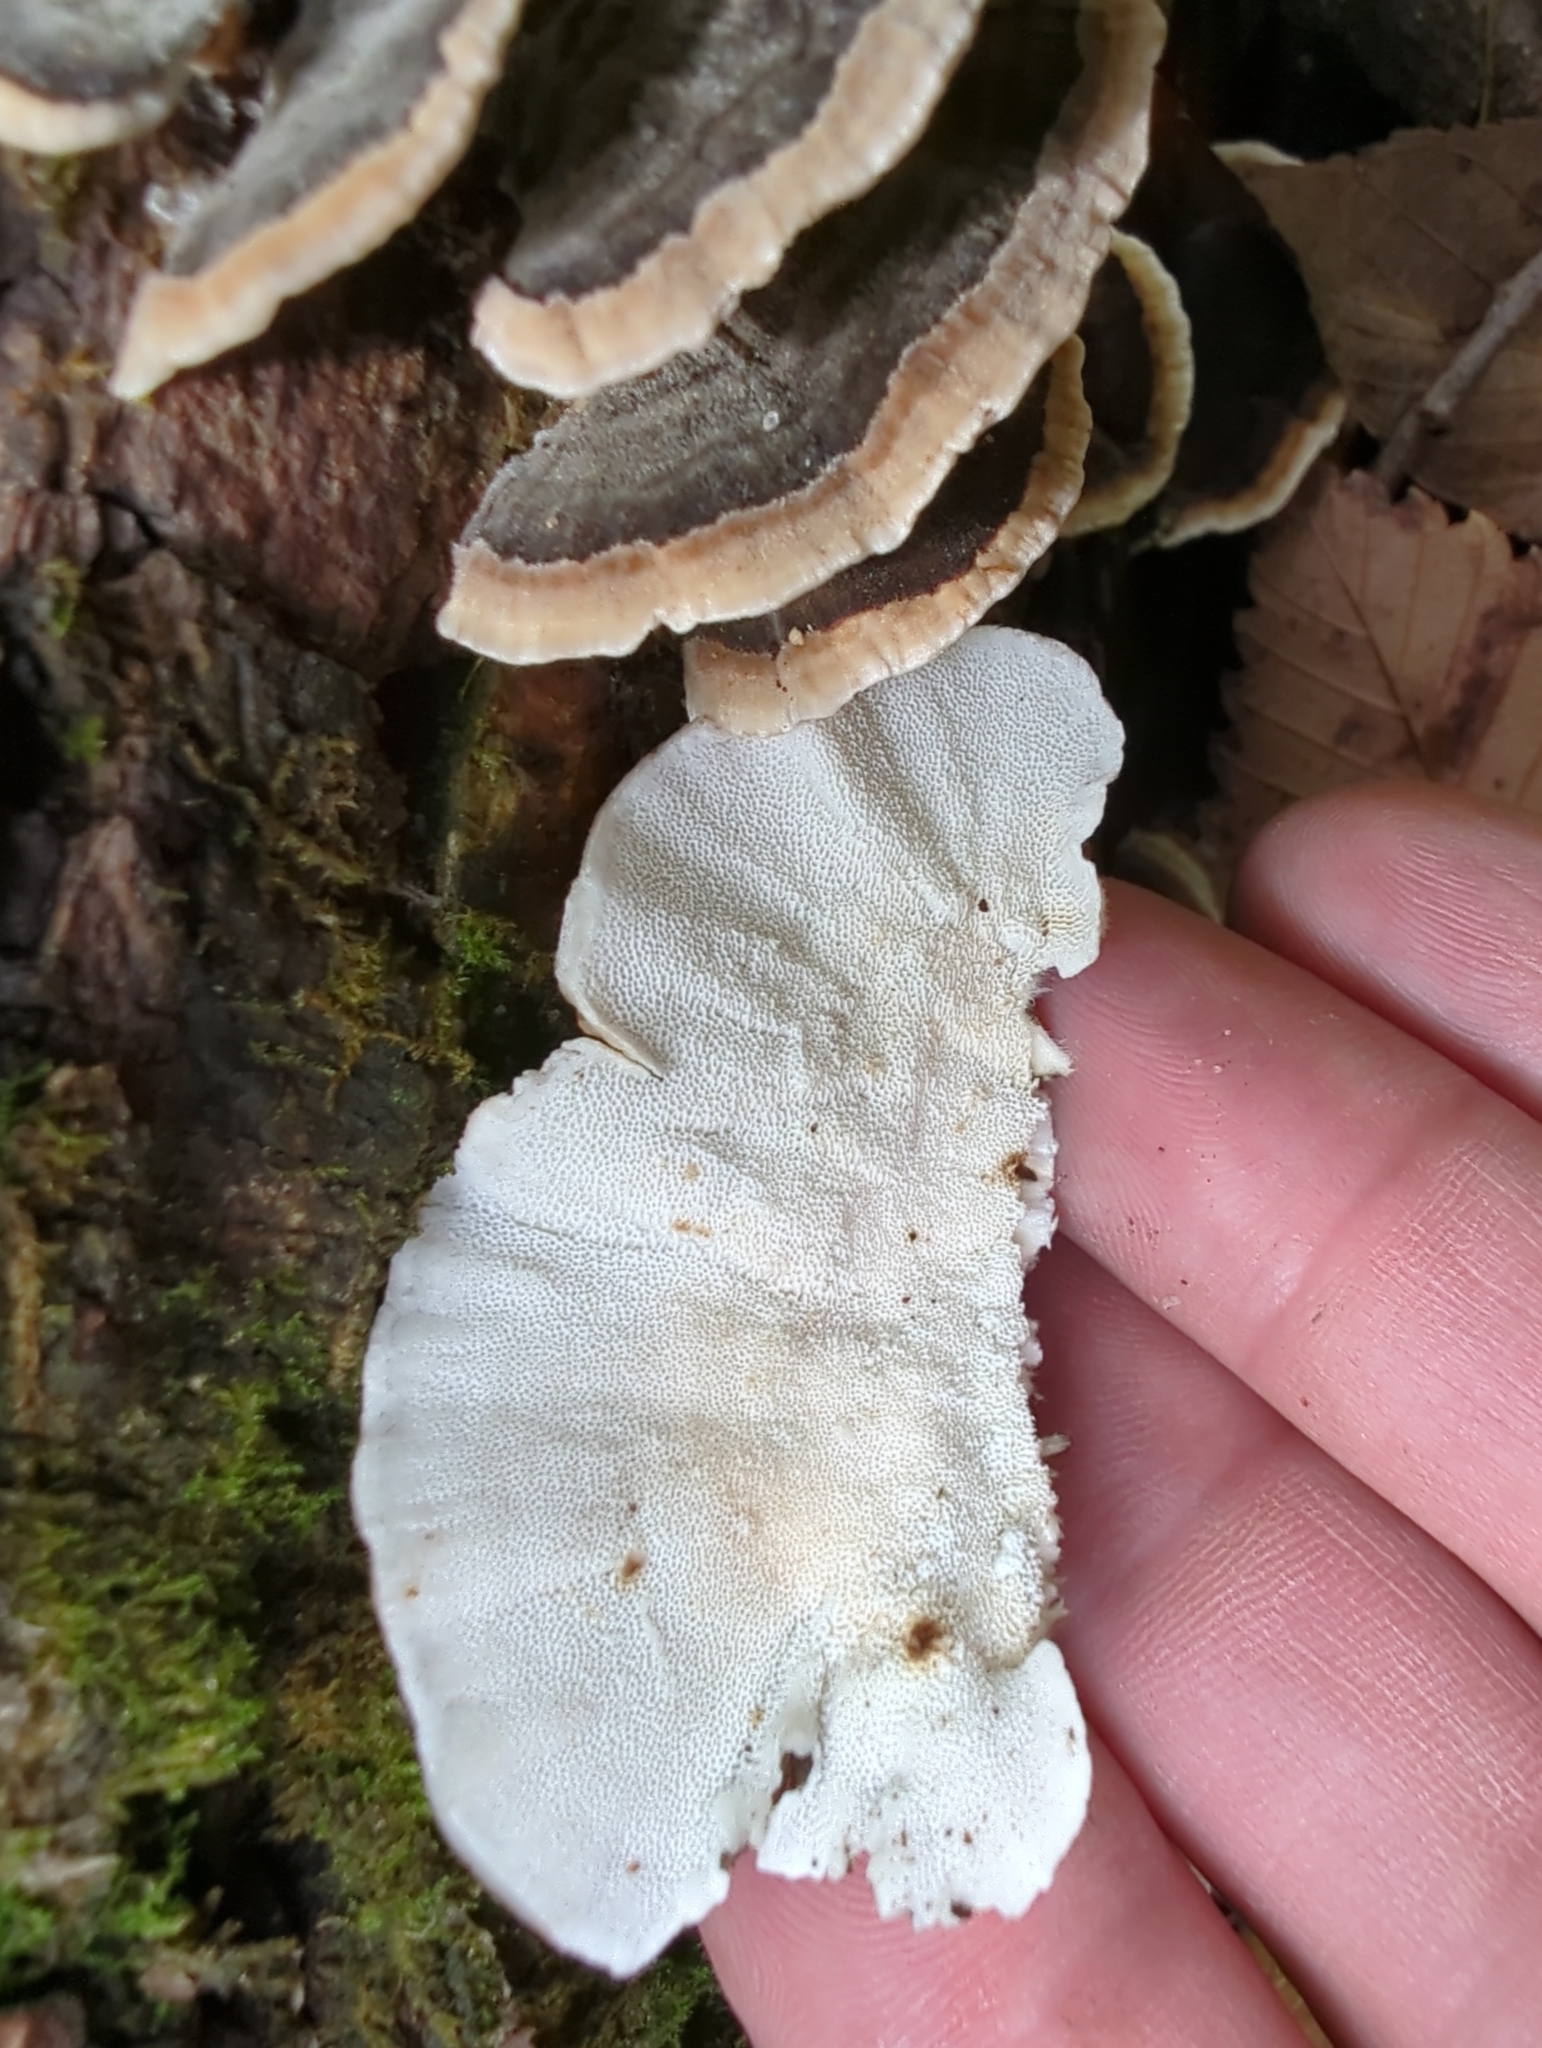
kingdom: Fungi
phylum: Basidiomycota
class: Agaricomycetes
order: Polyporales
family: Polyporaceae
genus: Trametes
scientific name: Trametes versicolor
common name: Turkeytail
